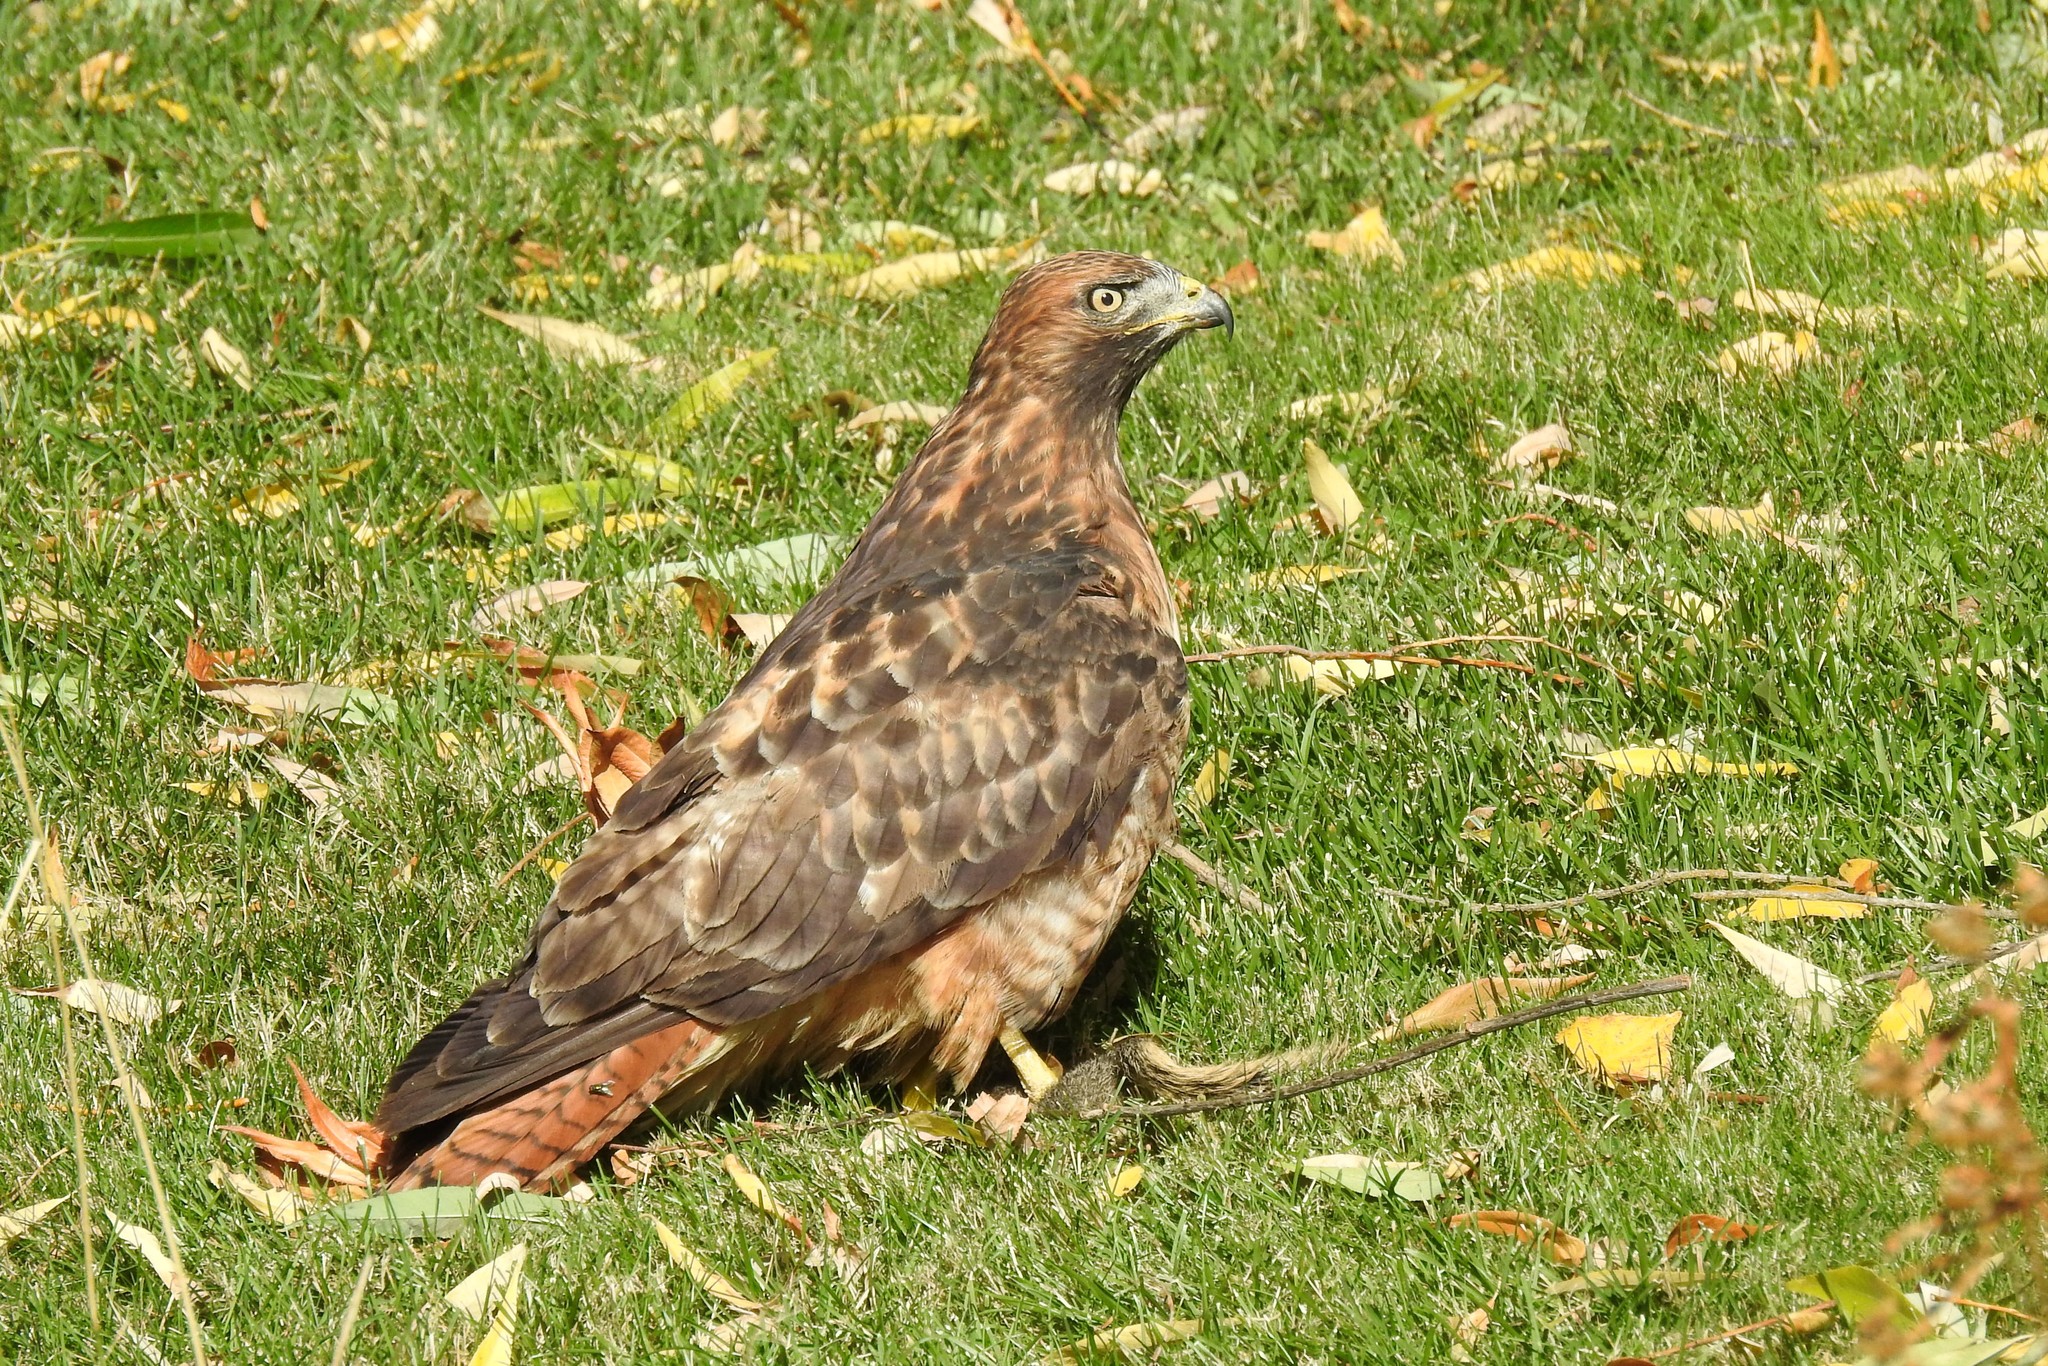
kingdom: Animalia
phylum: Chordata
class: Aves
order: Accipitriformes
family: Accipitridae
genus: Buteo
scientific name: Buteo jamaicensis
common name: Red-tailed hawk
